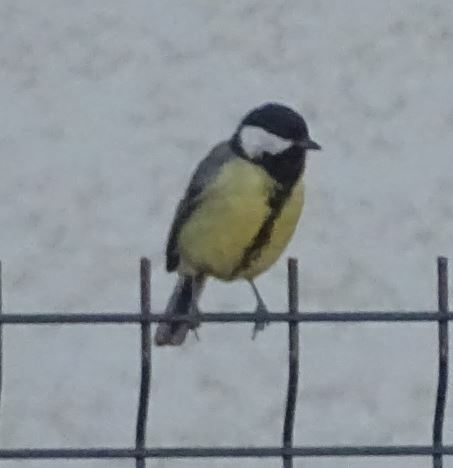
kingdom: Animalia
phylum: Chordata
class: Aves
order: Passeriformes
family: Paridae
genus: Parus
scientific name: Parus major
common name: Great tit
